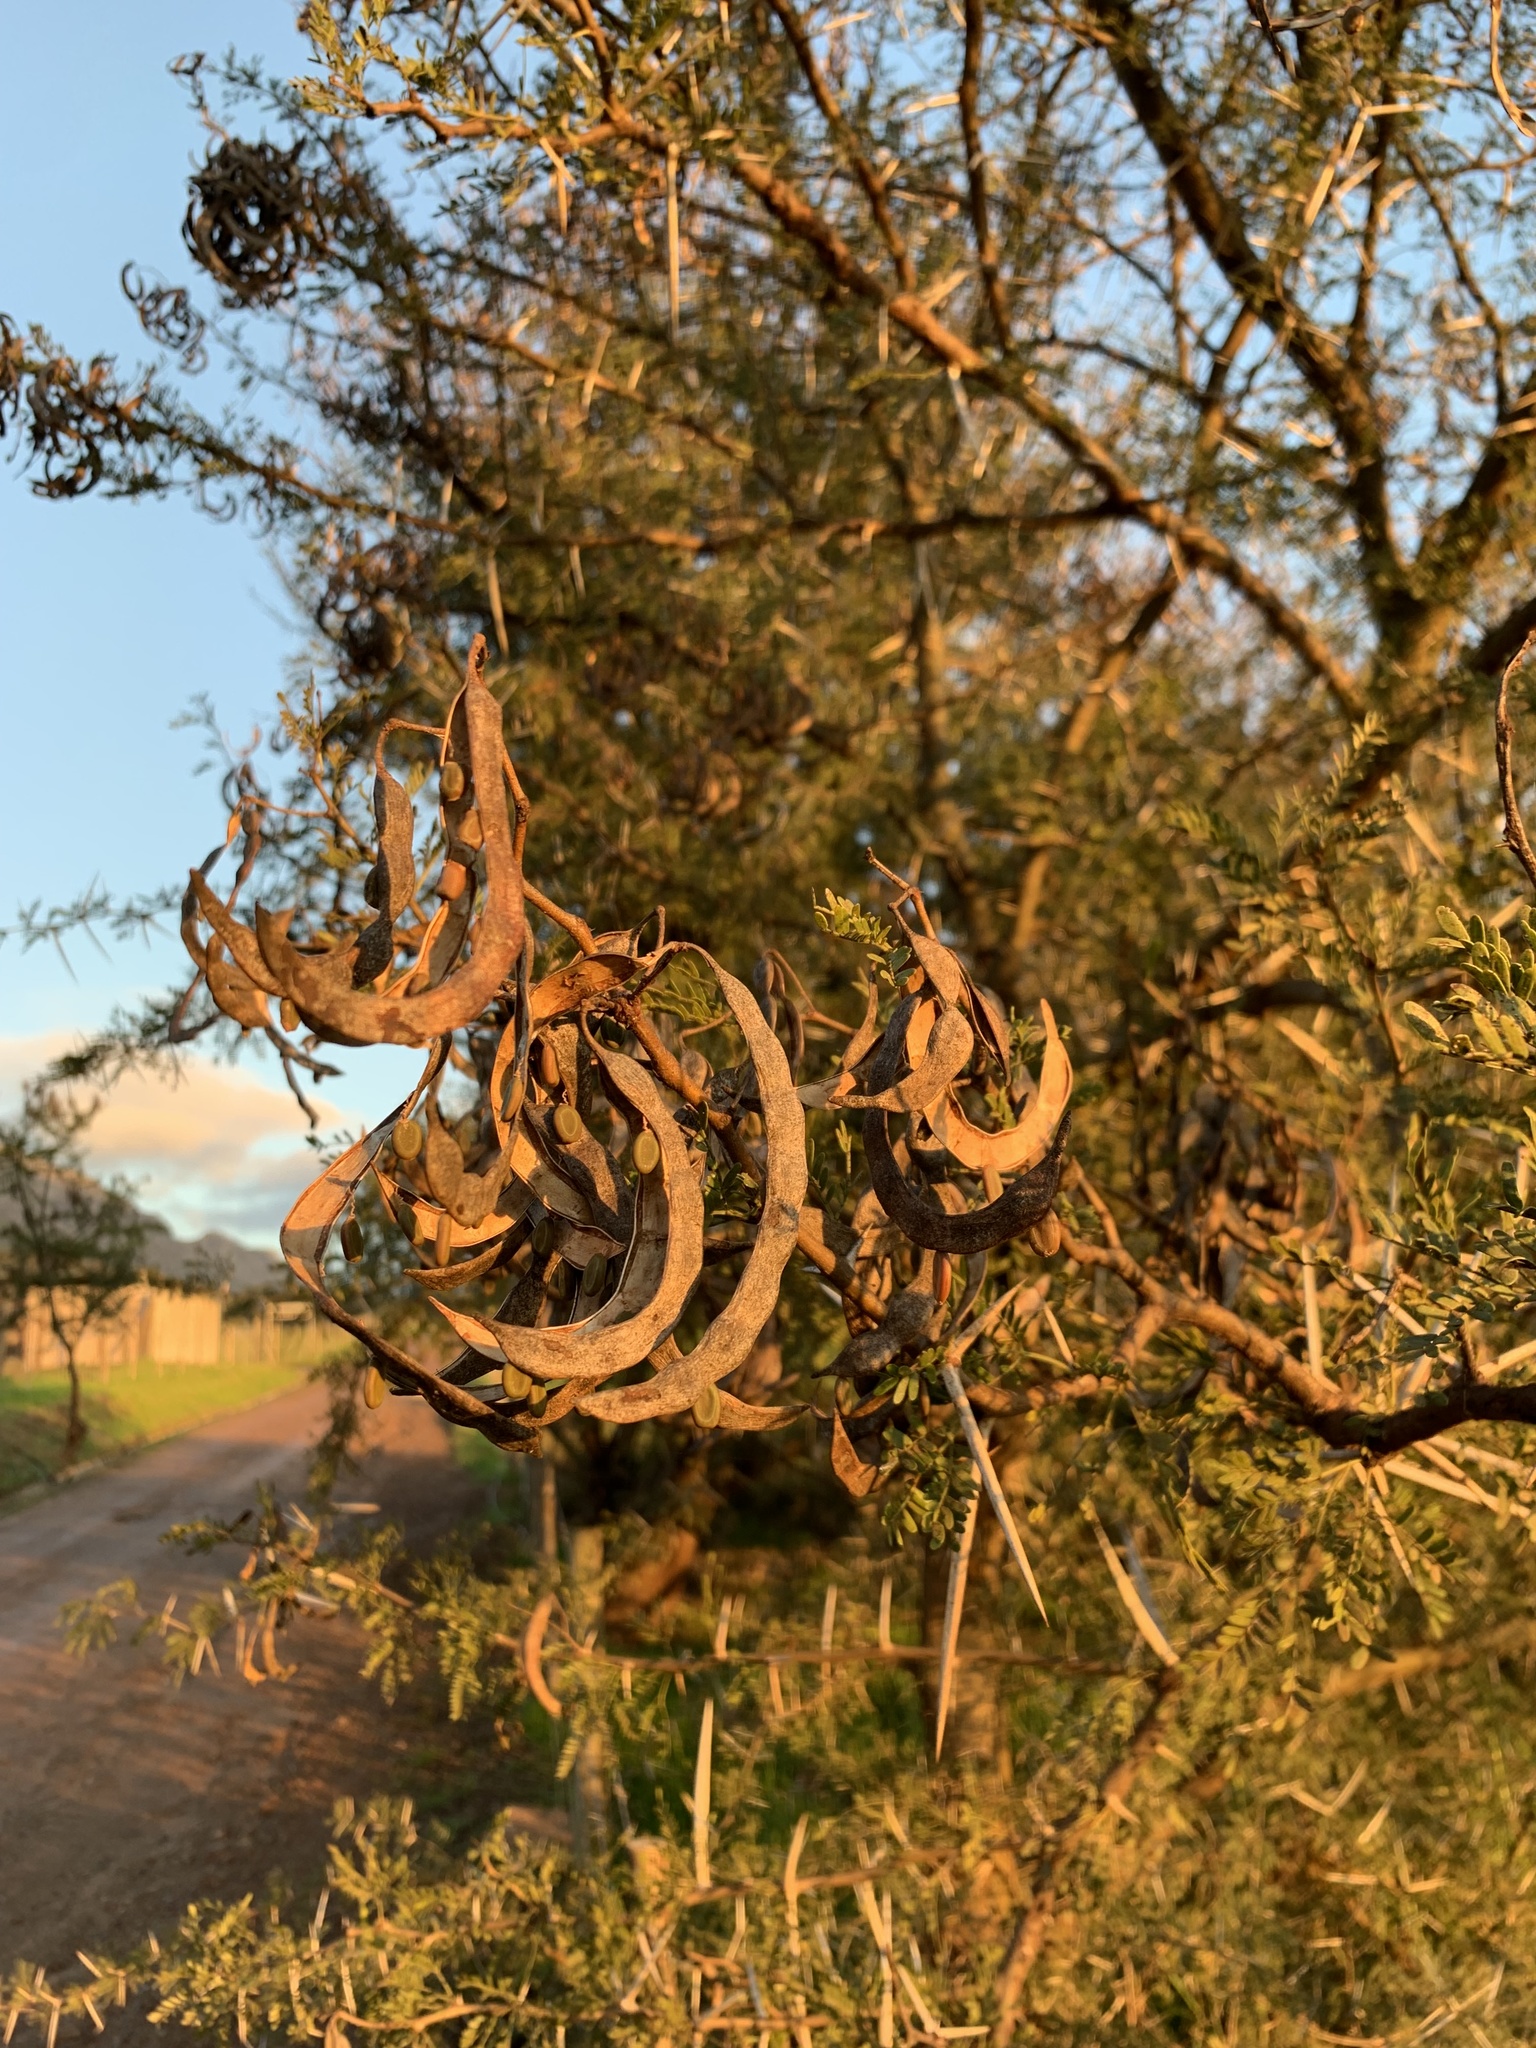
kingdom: Plantae
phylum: Tracheophyta
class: Magnoliopsida
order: Fabales
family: Fabaceae
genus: Vachellia
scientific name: Vachellia karroo
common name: Sweet thorn
